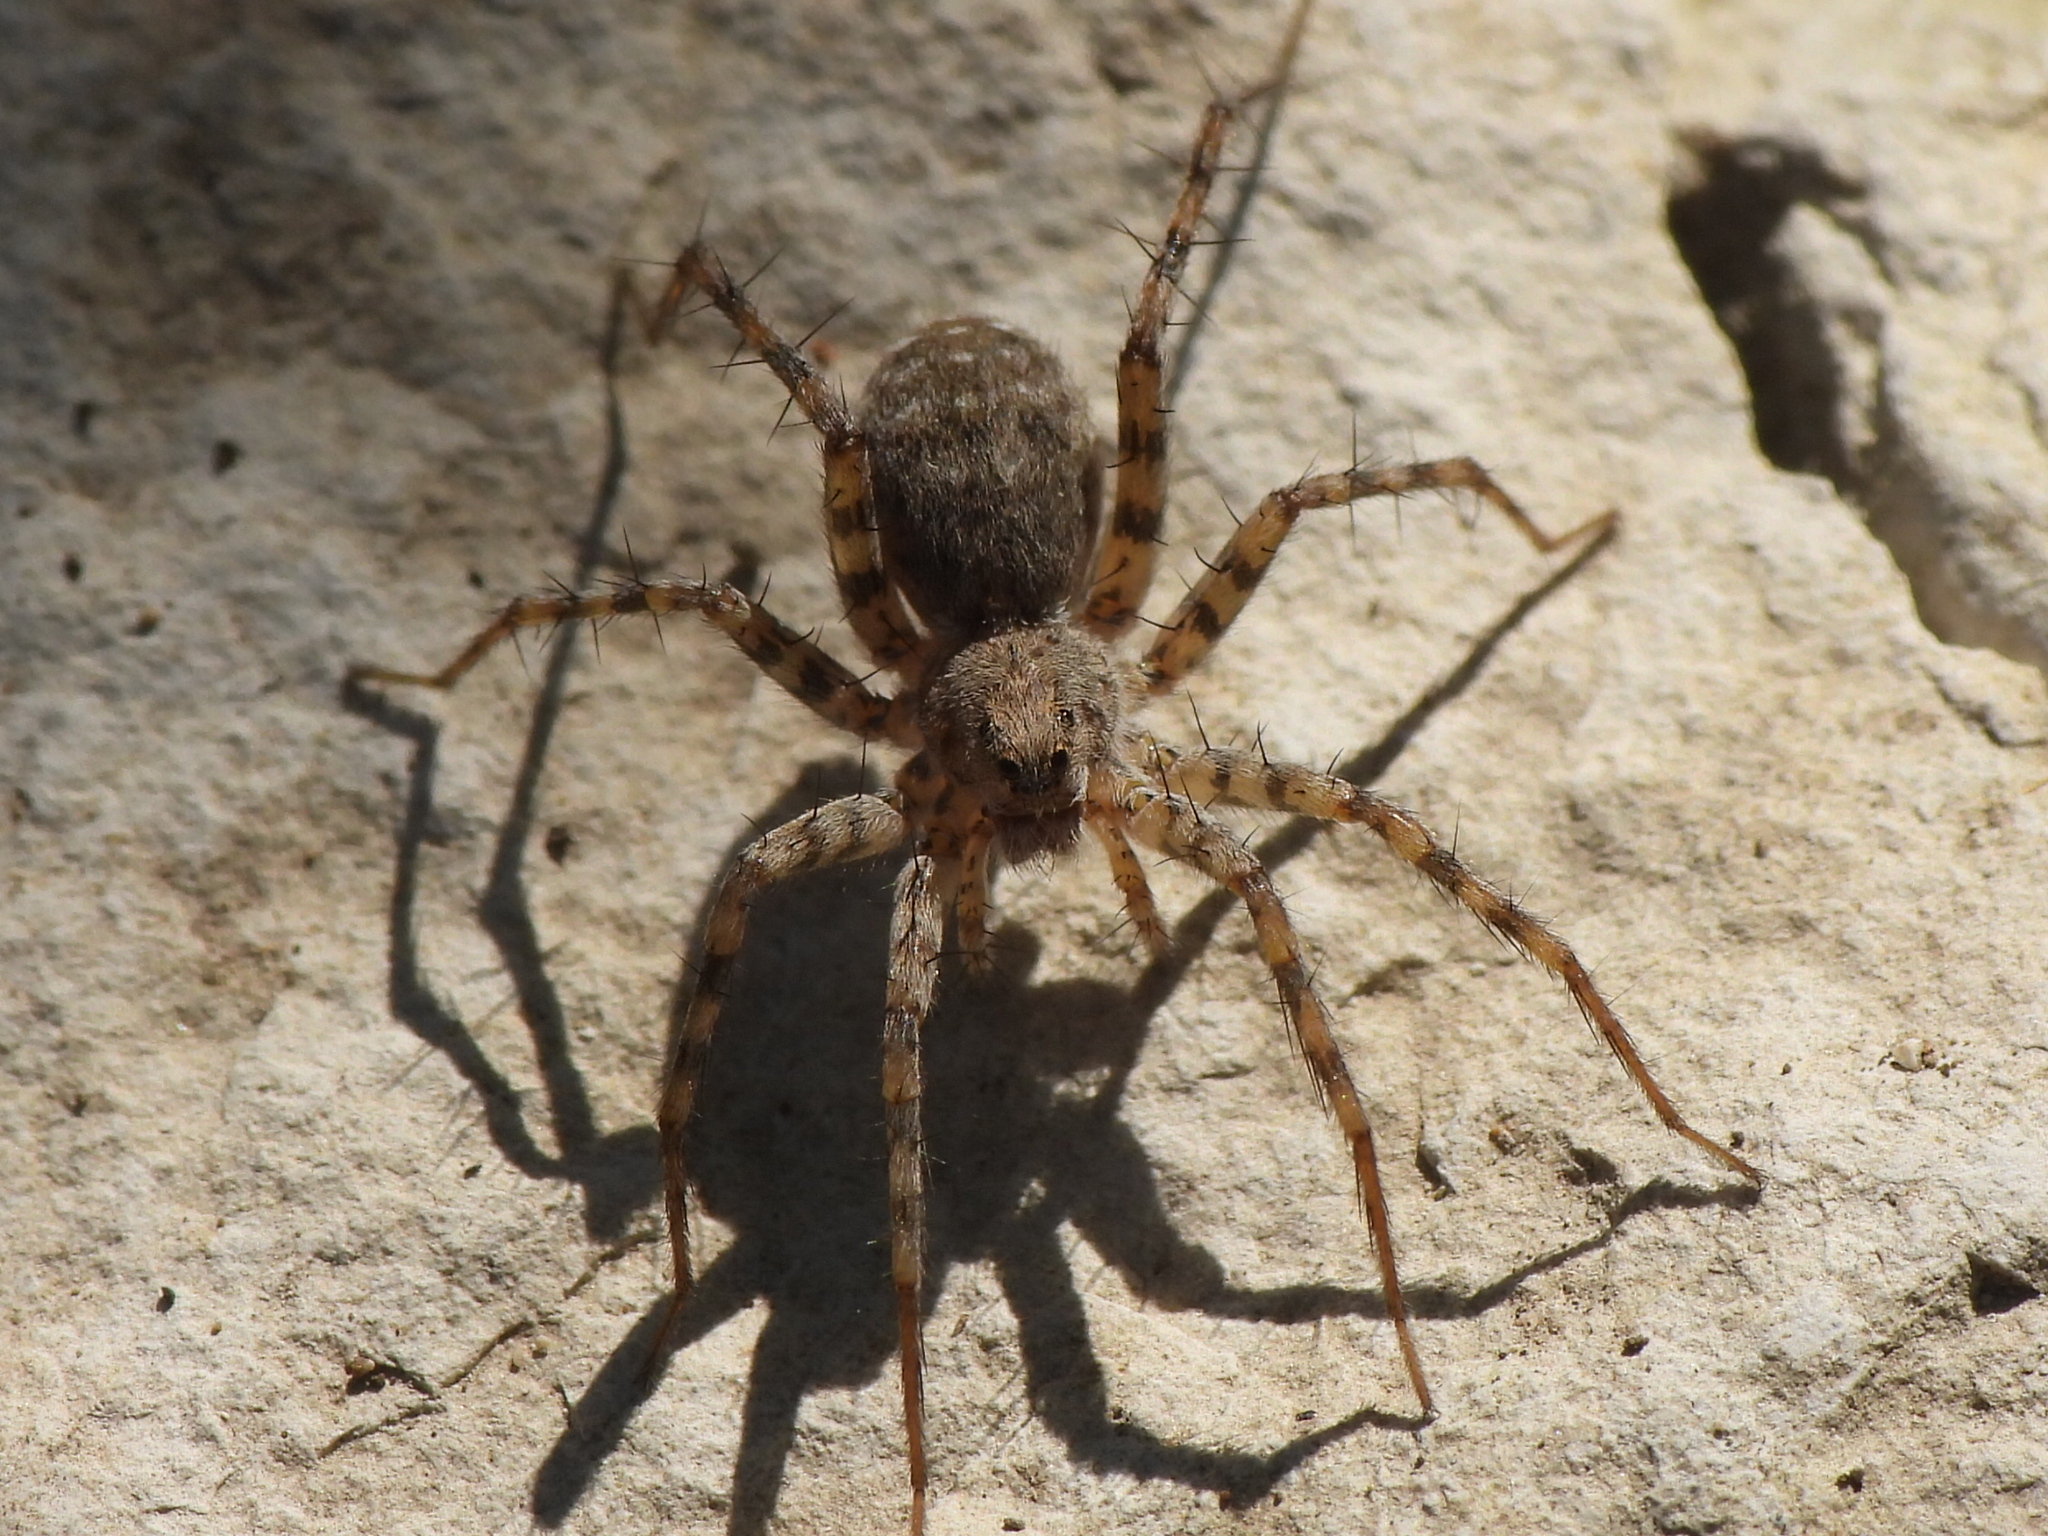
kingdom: Animalia
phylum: Arthropoda
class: Arachnida
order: Araneae
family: Lycosidae
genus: Pardosa
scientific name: Pardosa mercurialis
